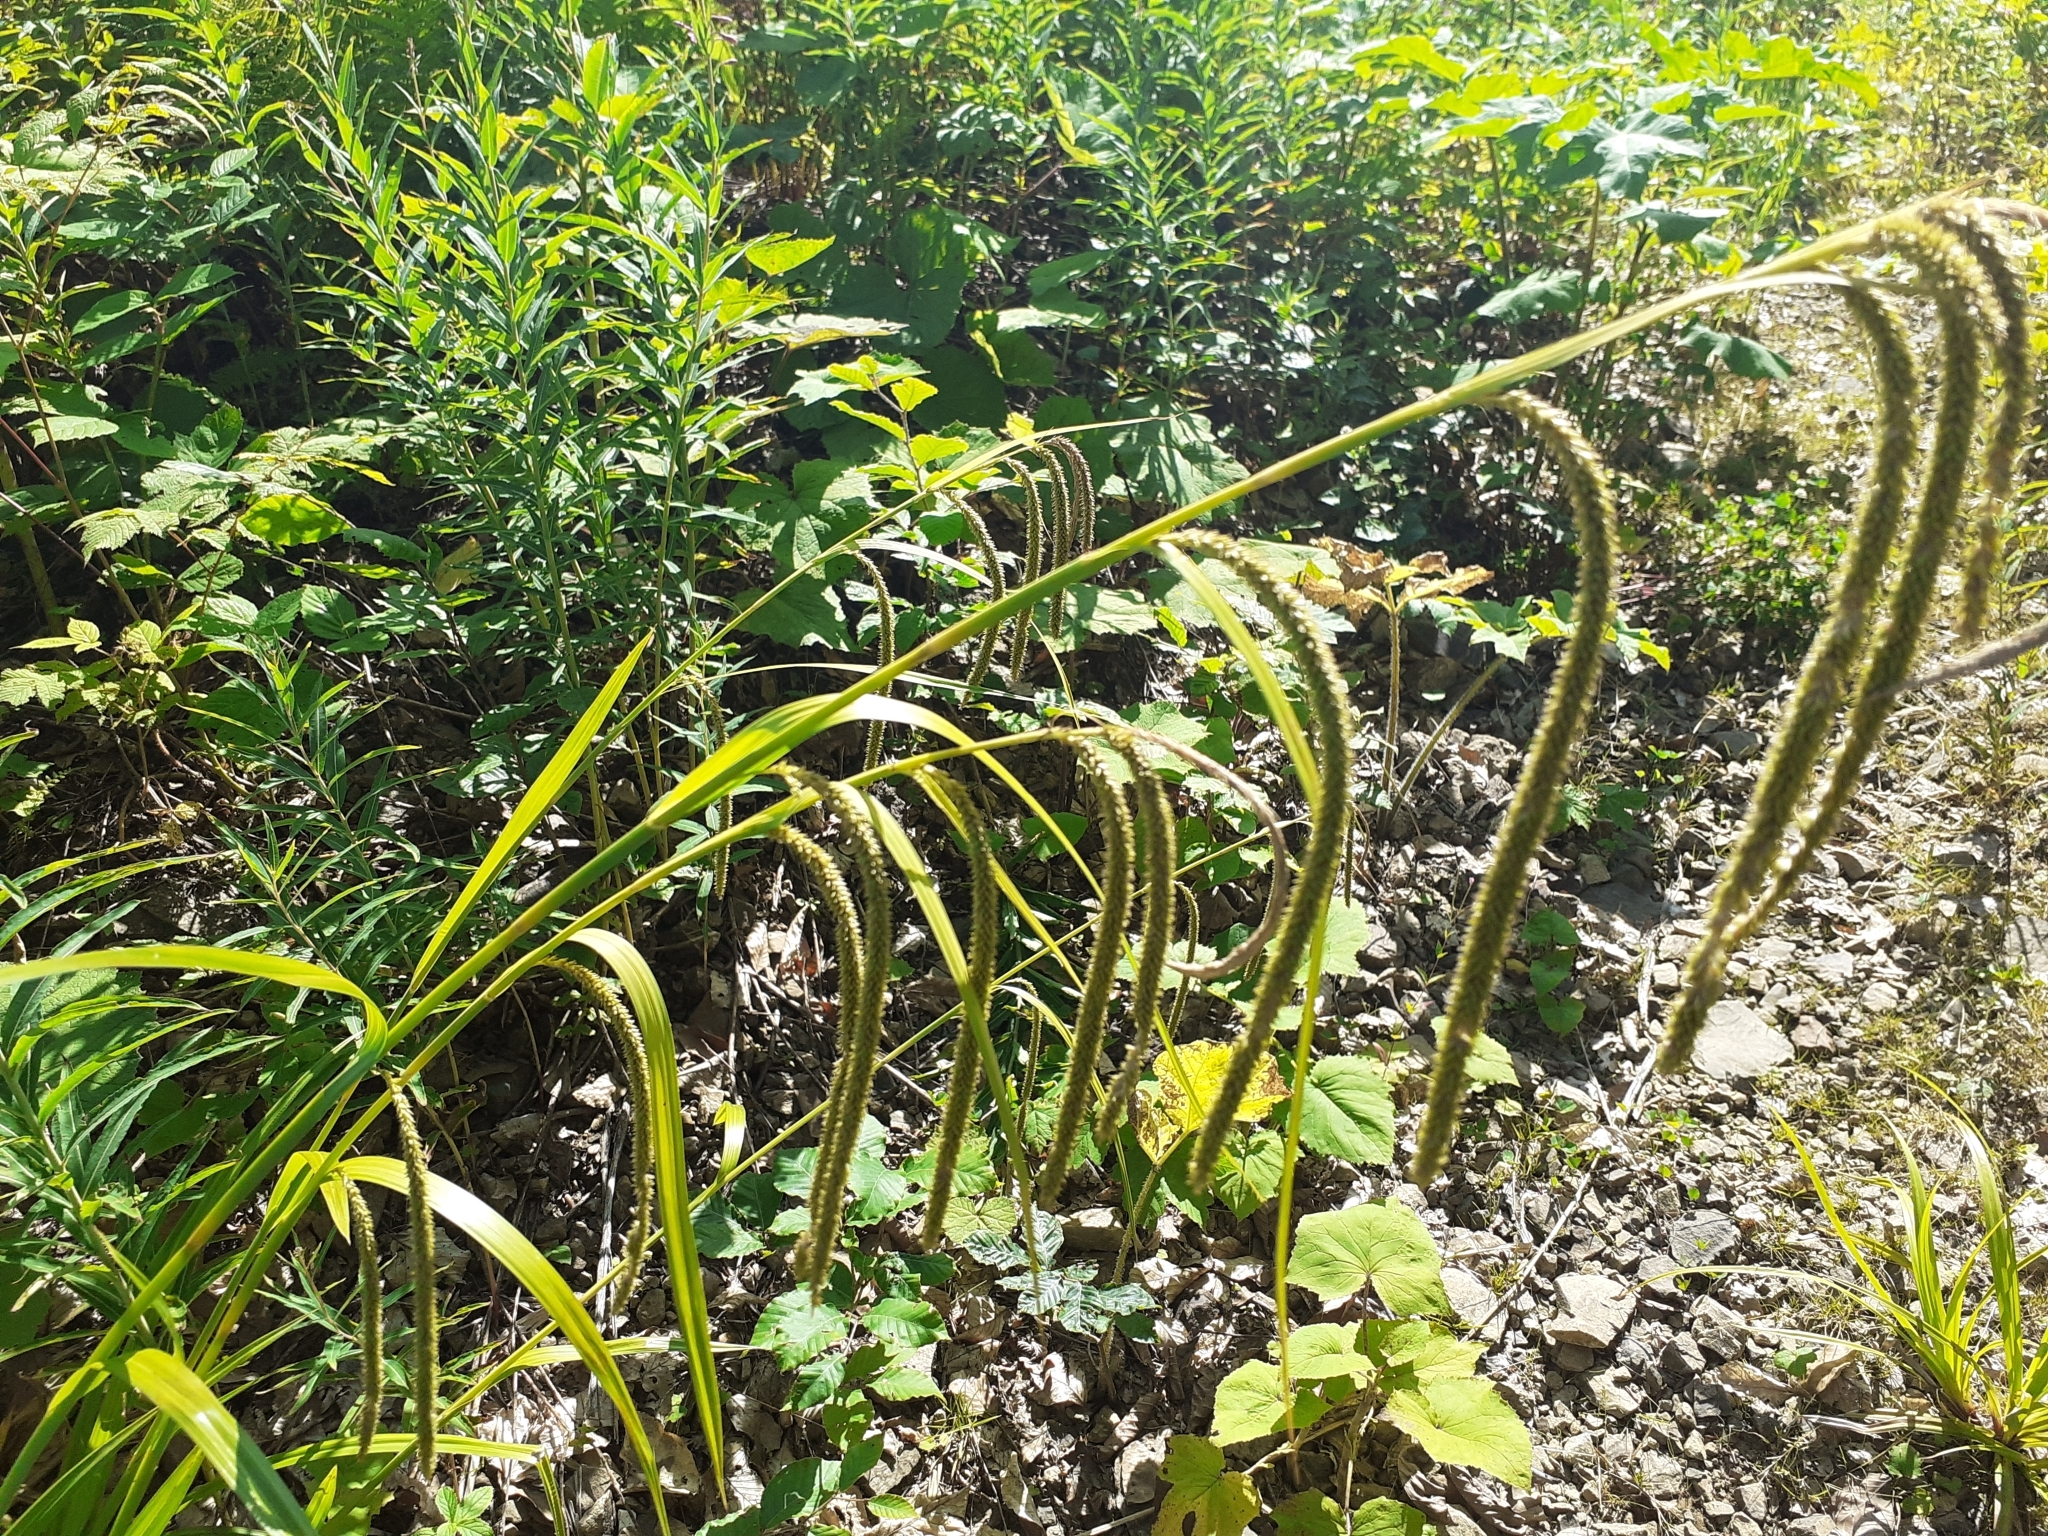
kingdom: Plantae
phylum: Tracheophyta
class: Liliopsida
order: Poales
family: Cyperaceae
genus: Carex
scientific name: Carex pendula
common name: Pendulous sedge
